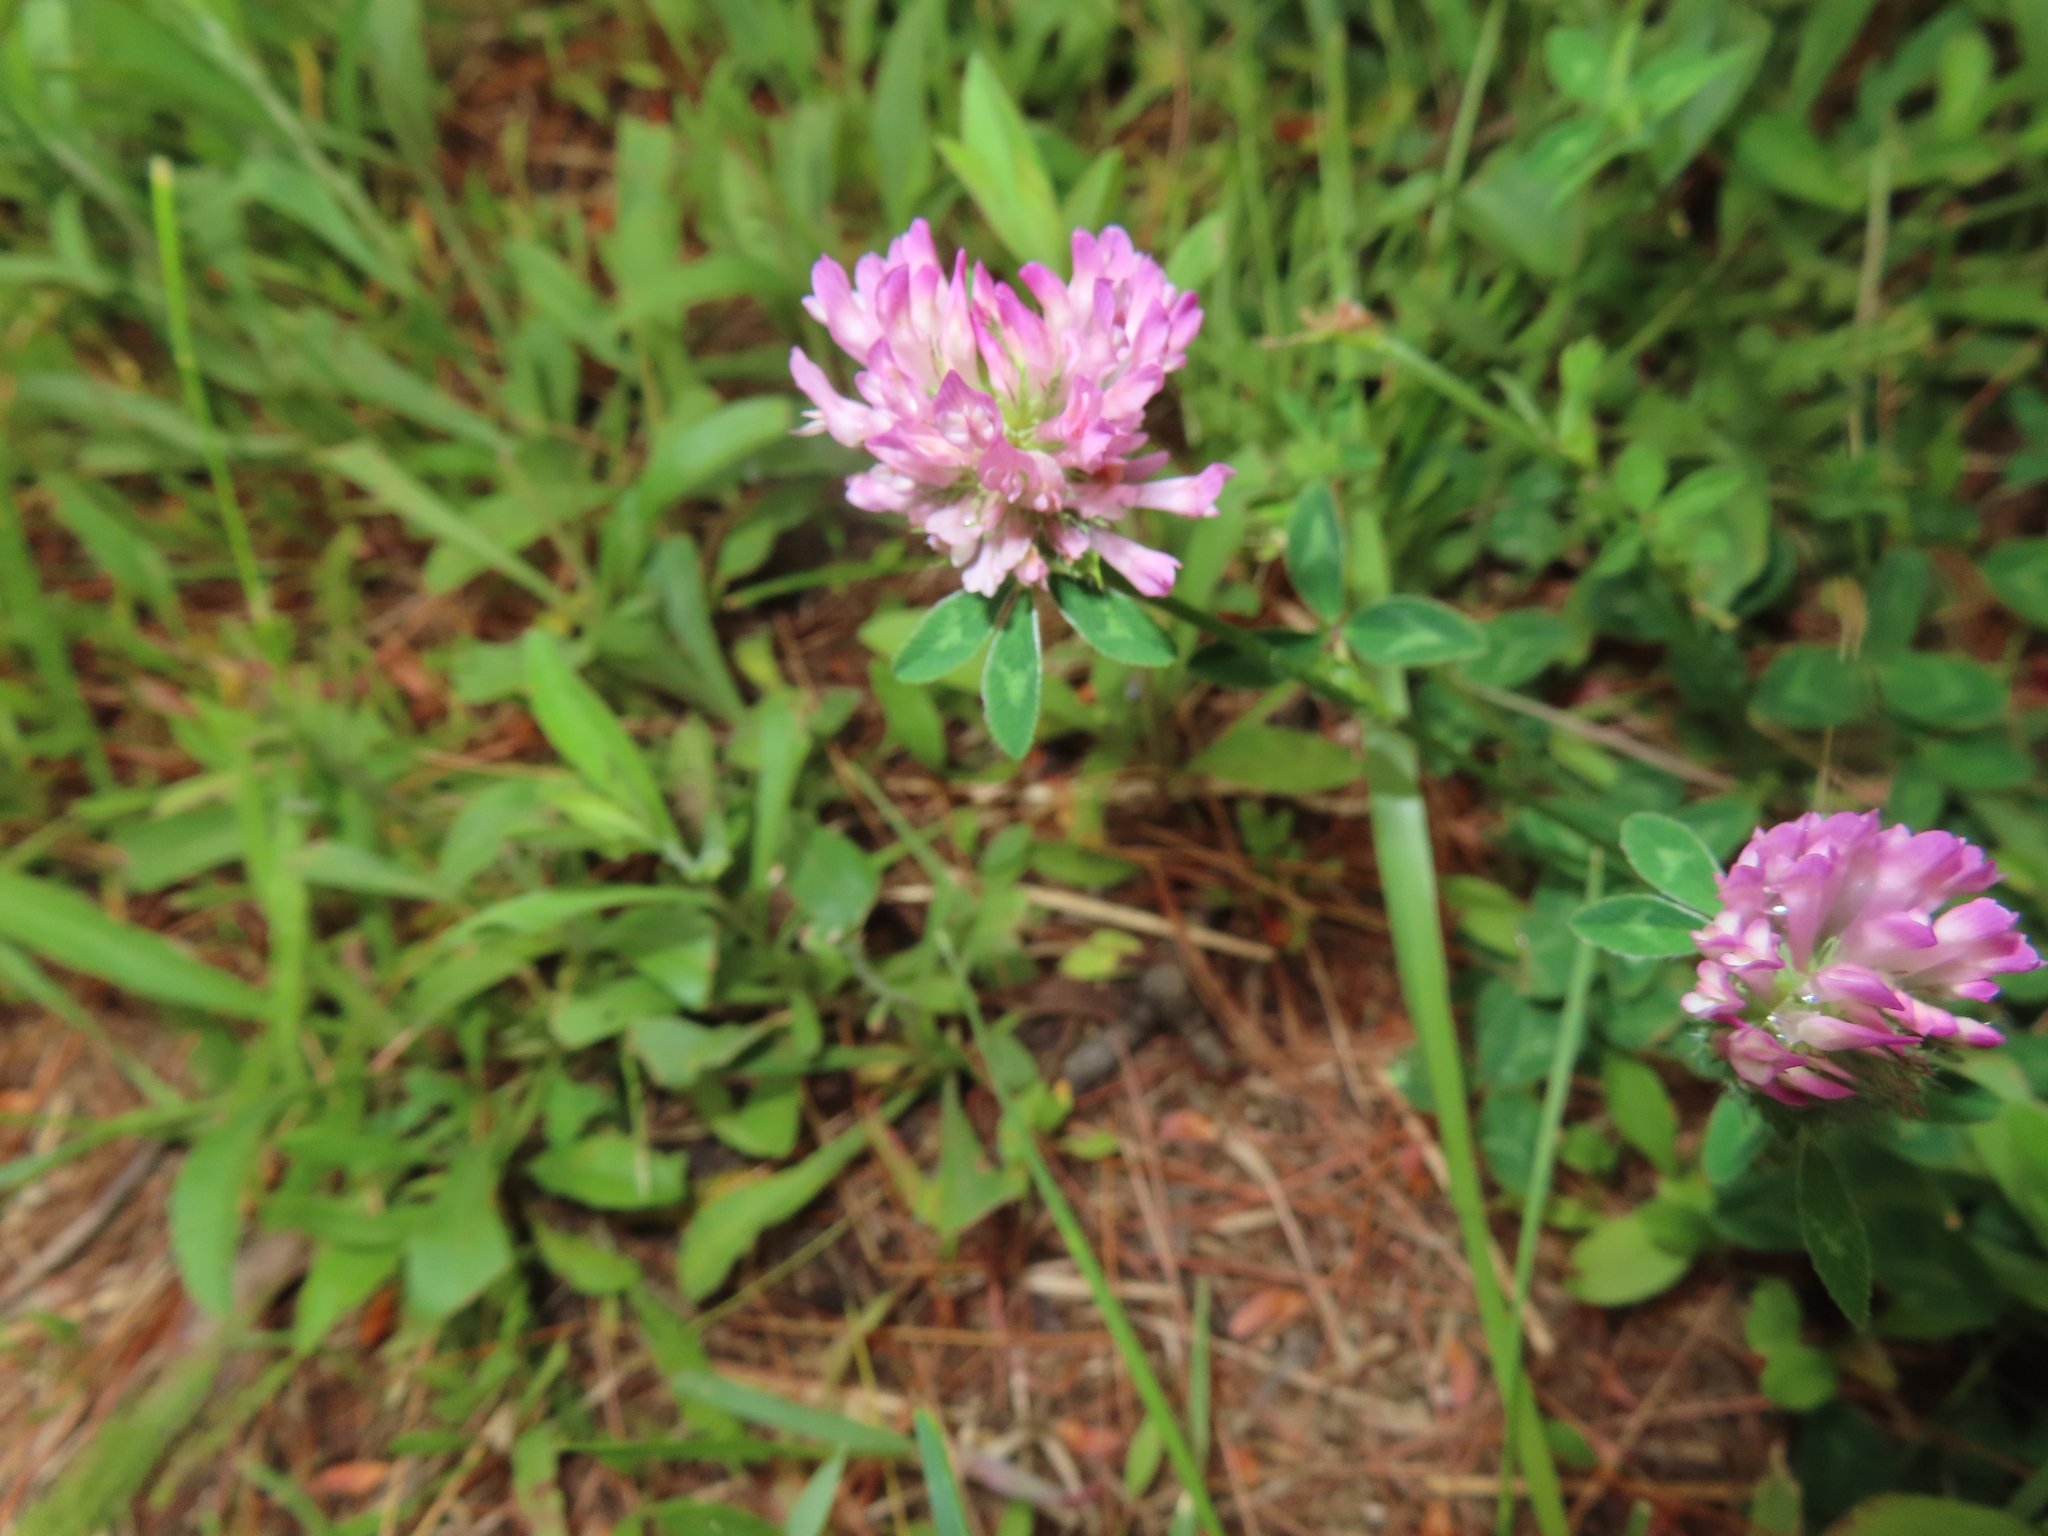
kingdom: Plantae
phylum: Tracheophyta
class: Magnoliopsida
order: Fabales
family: Fabaceae
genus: Trifolium
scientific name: Trifolium pratense
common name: Red clover
